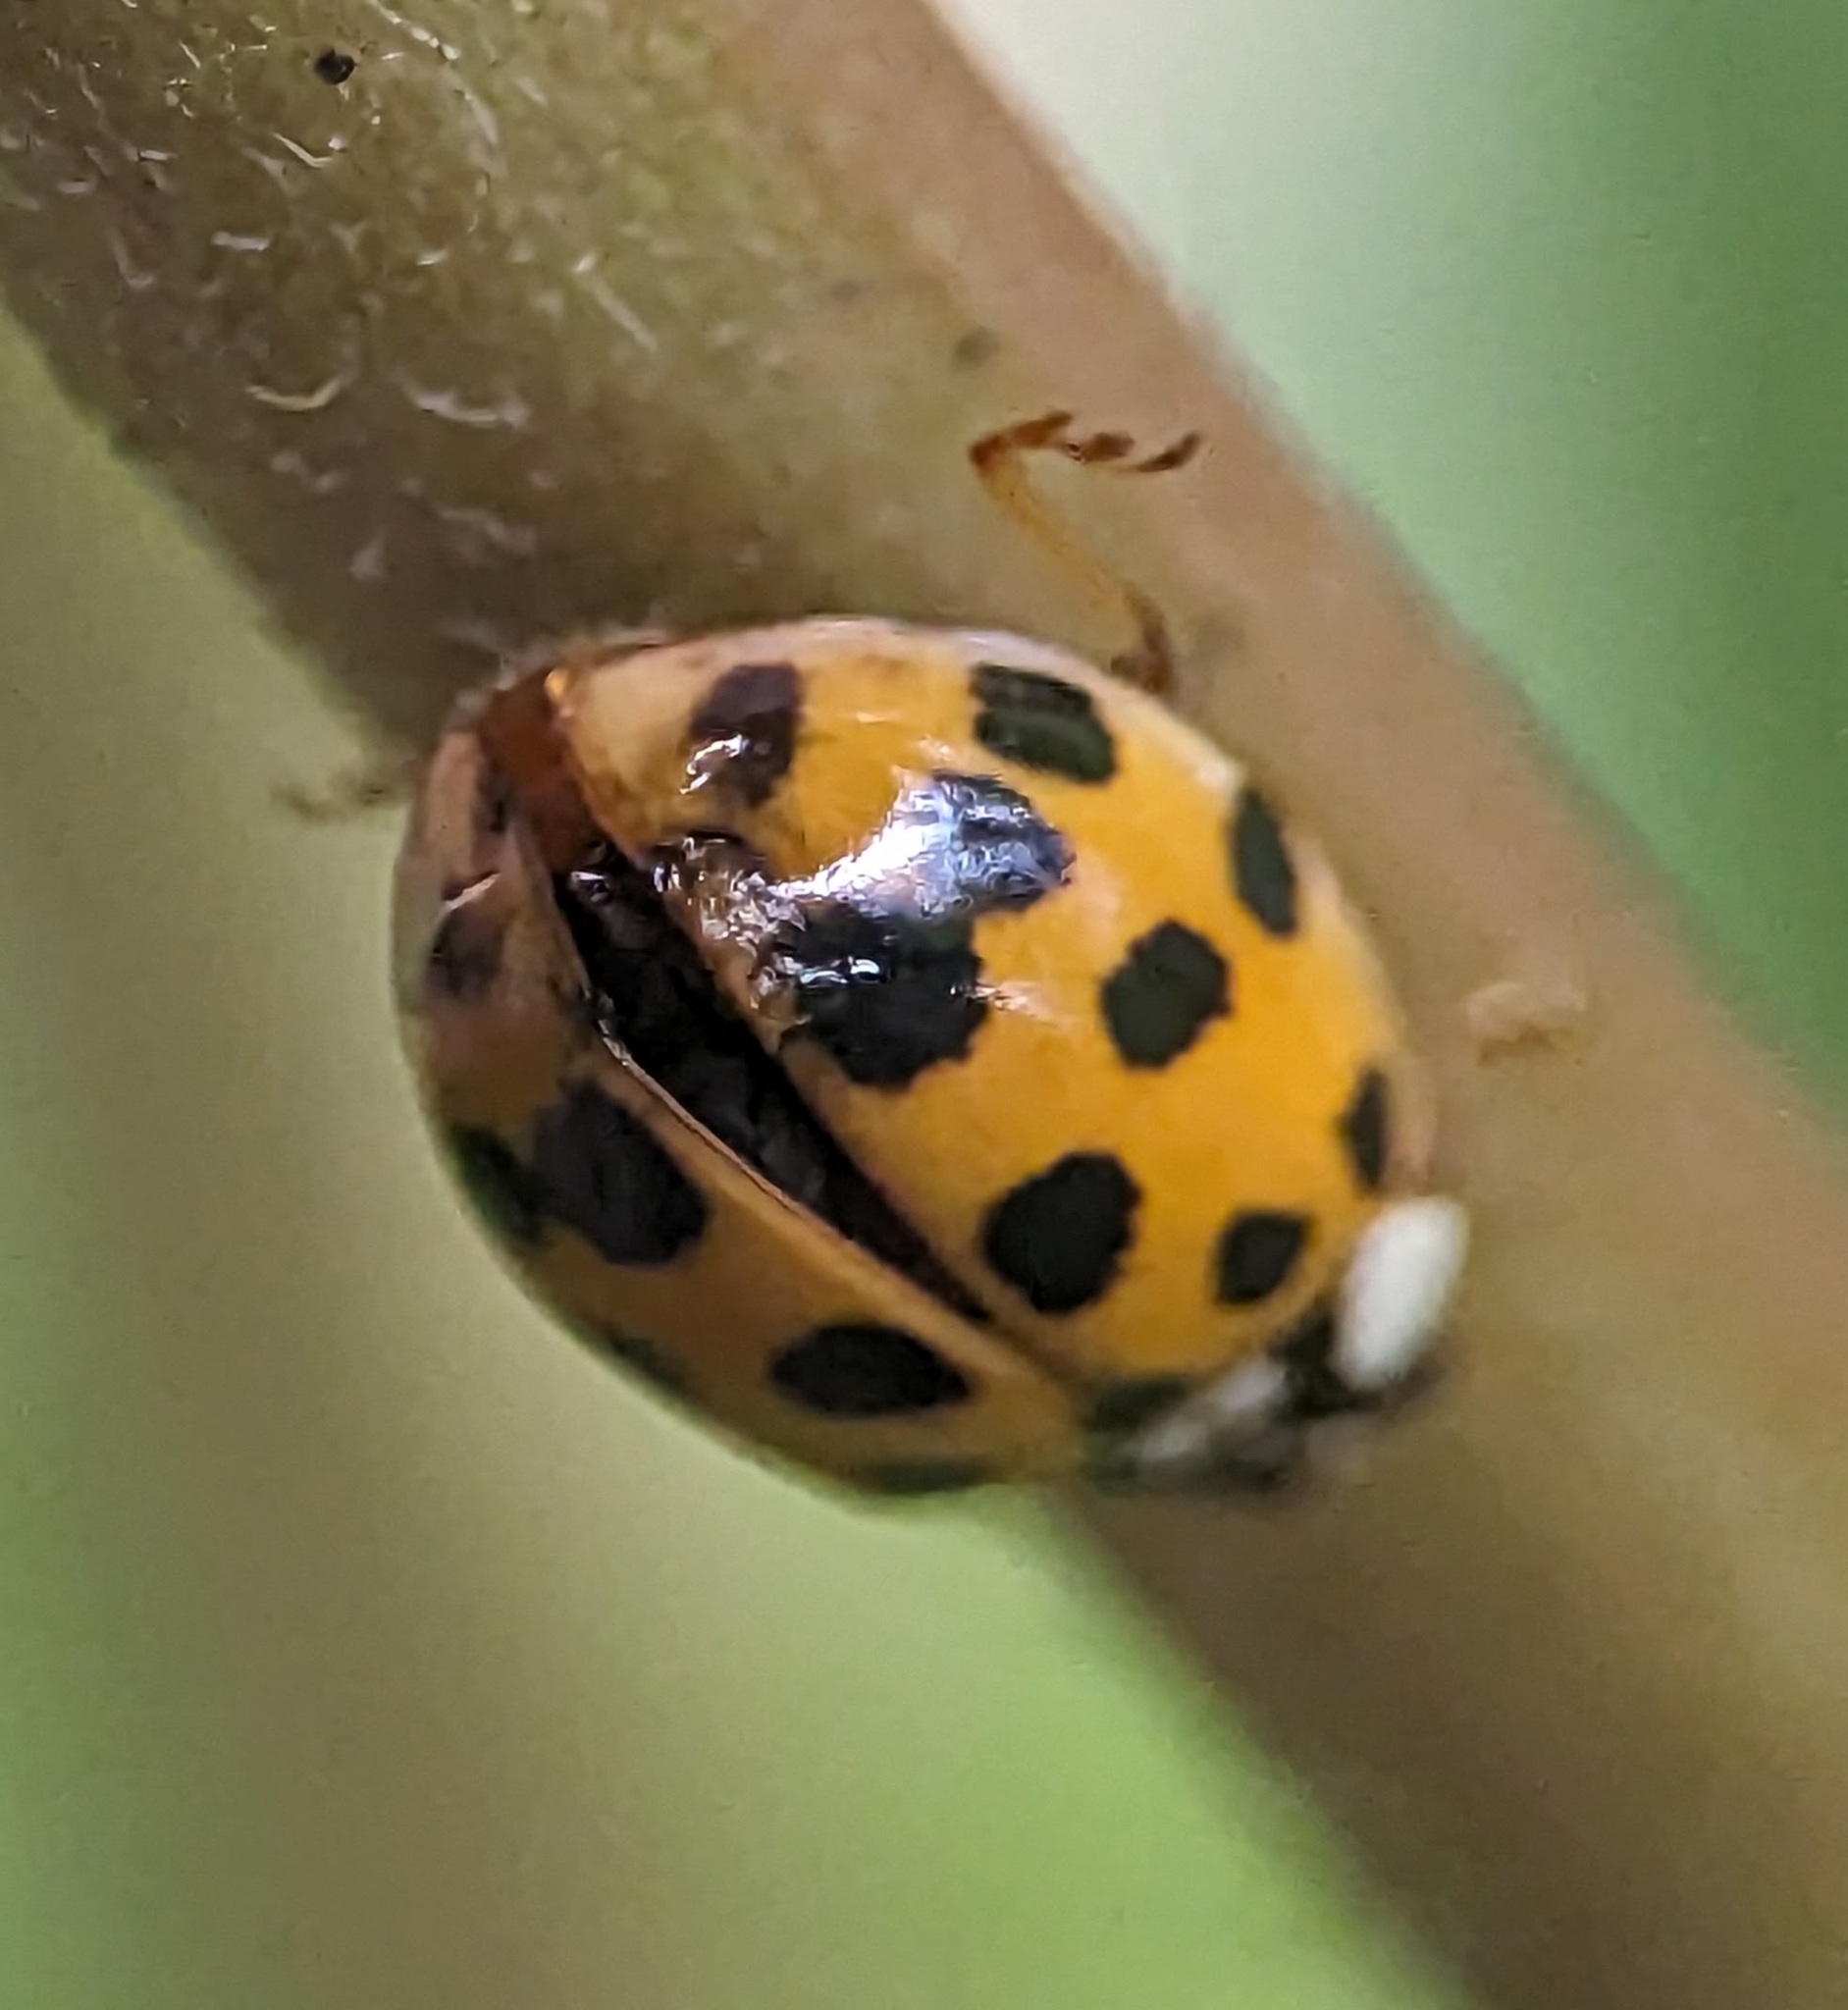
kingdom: Animalia
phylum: Arthropoda
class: Insecta
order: Coleoptera
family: Coccinellidae
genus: Harmonia
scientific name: Harmonia axyridis
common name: Harlequin ladybird
